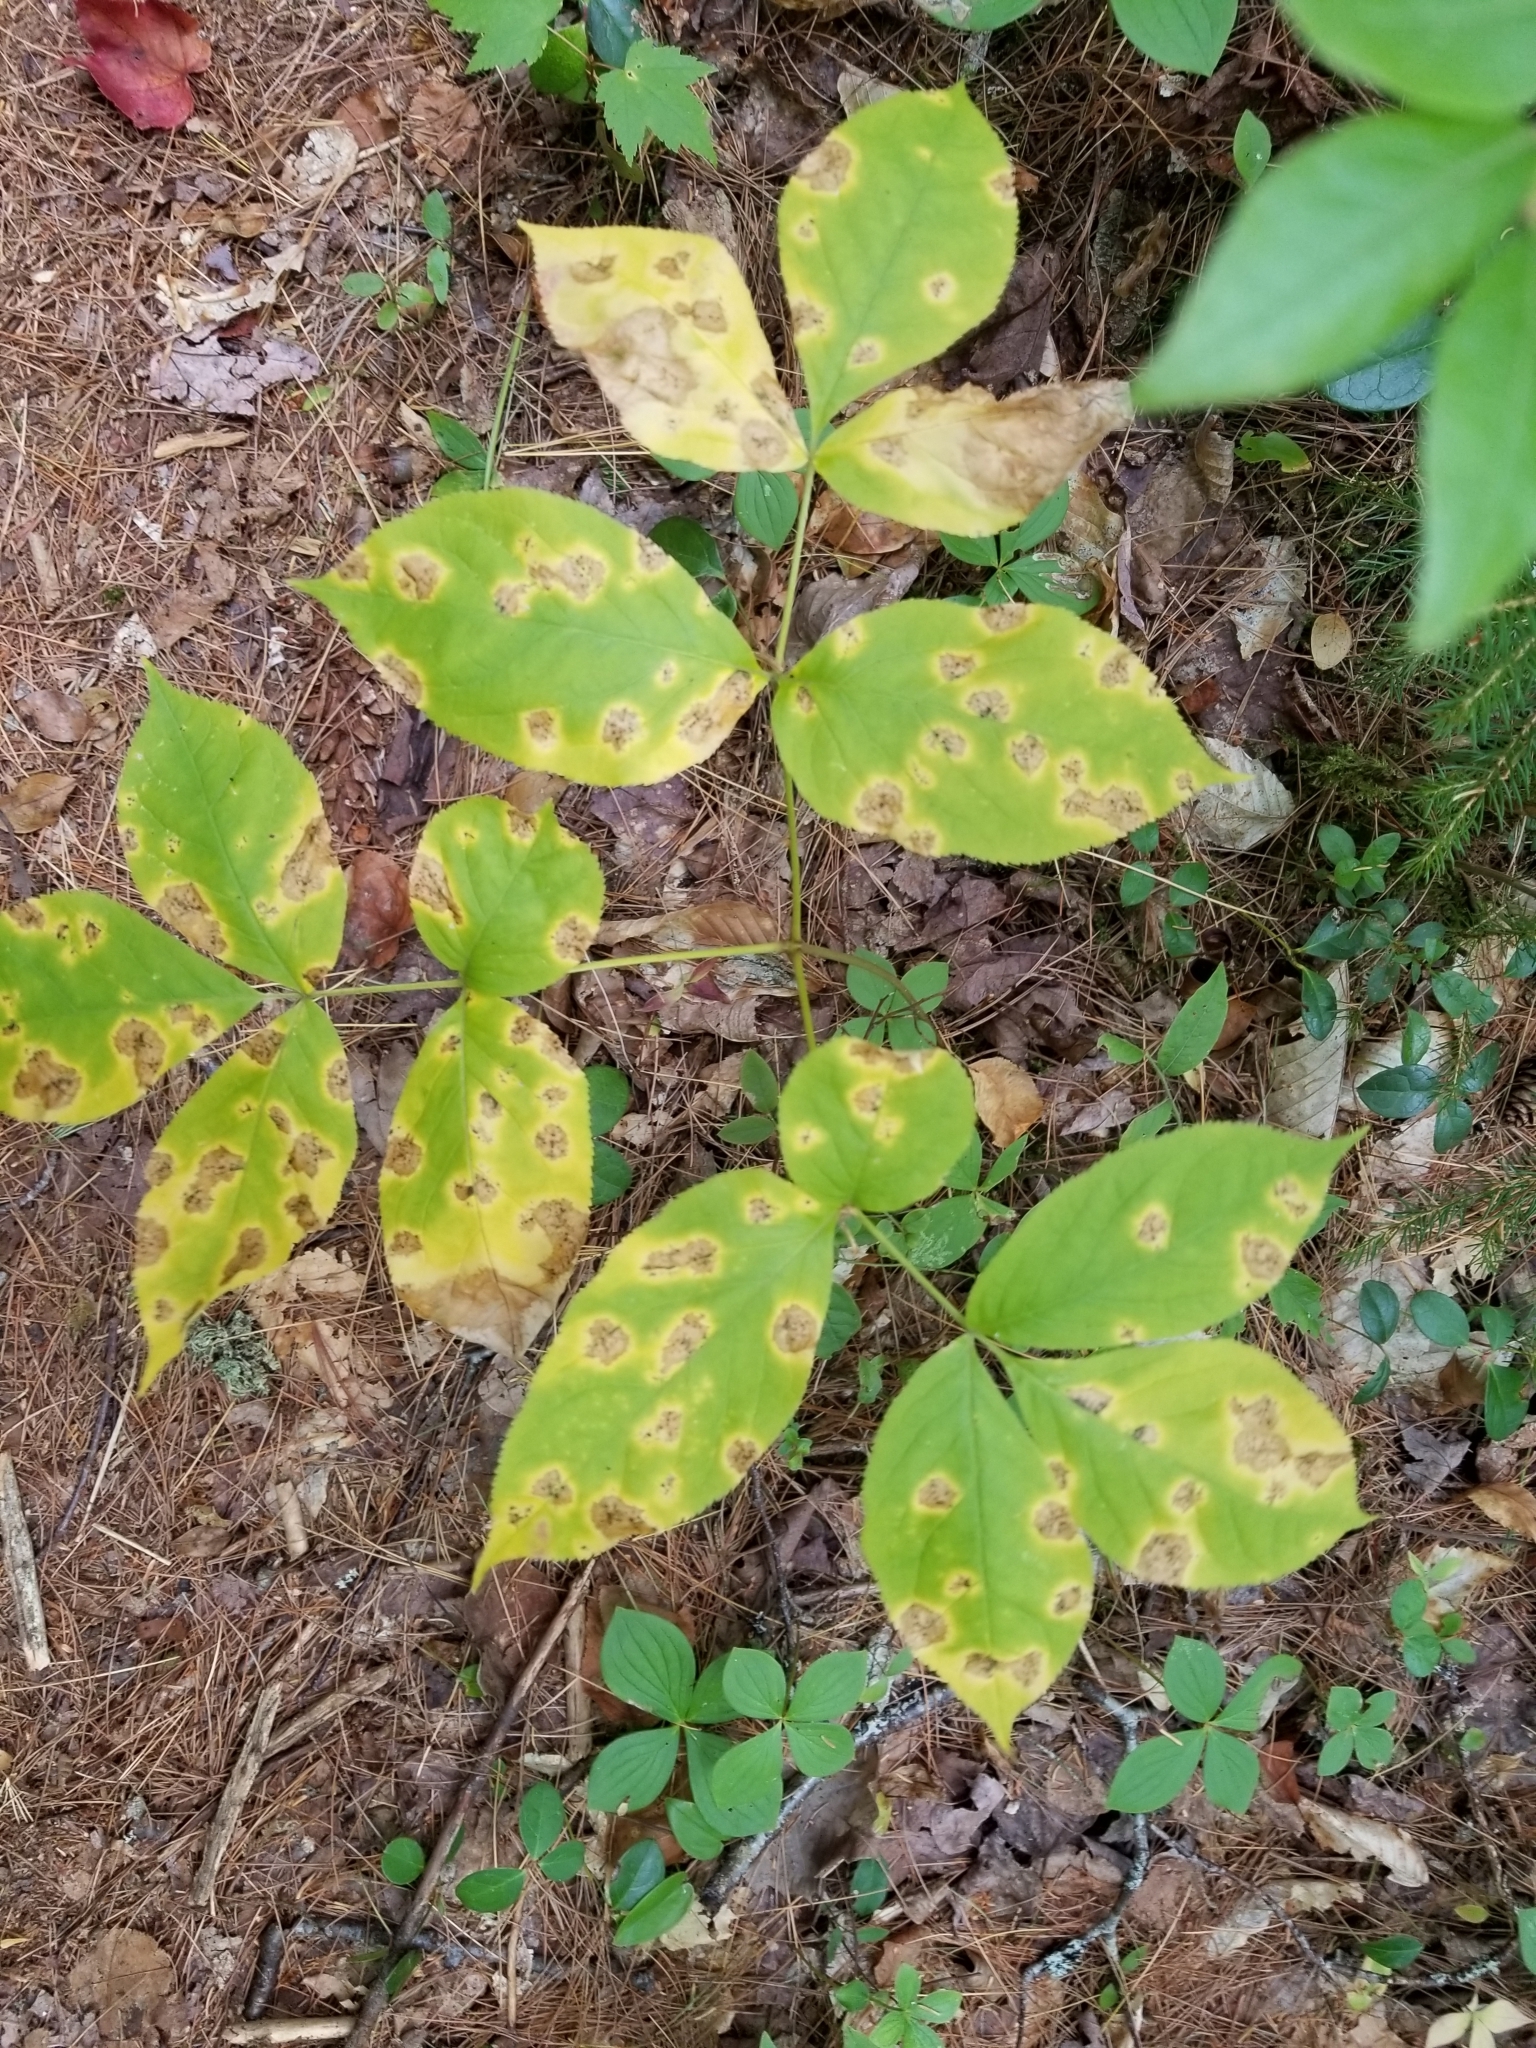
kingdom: Plantae
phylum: Tracheophyta
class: Magnoliopsida
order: Apiales
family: Araliaceae
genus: Aralia
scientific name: Aralia nudicaulis
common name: Wild sarsaparilla
